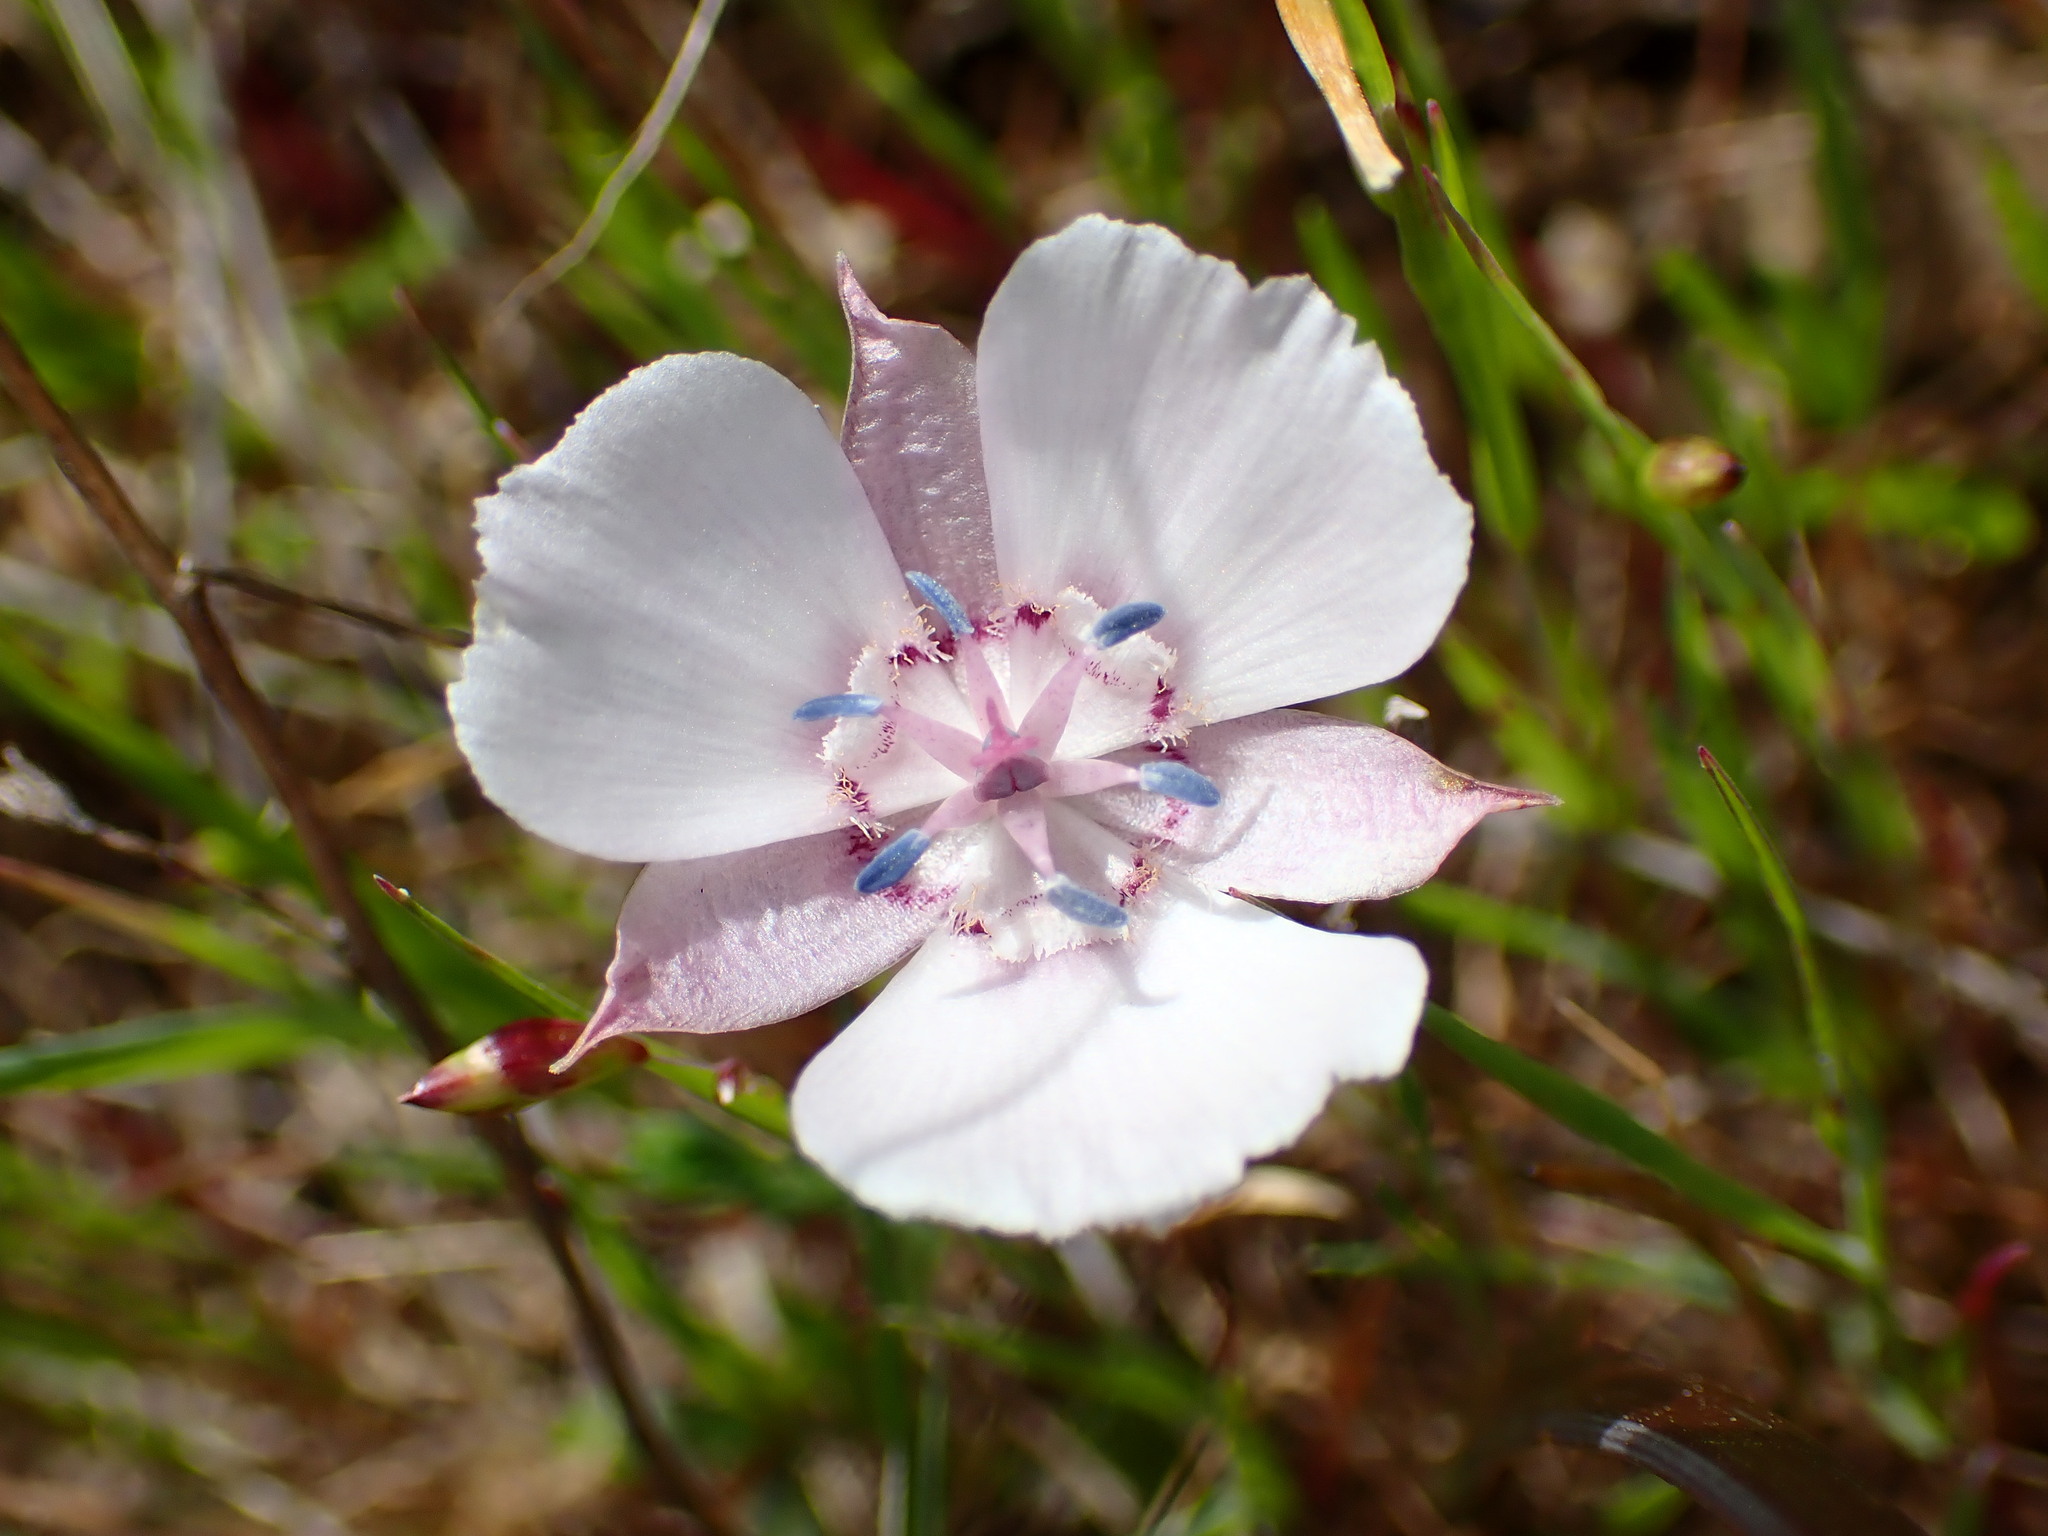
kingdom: Plantae
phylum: Tracheophyta
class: Liliopsida
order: Liliales
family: Liliaceae
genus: Calochortus
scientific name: Calochortus umbellatus
